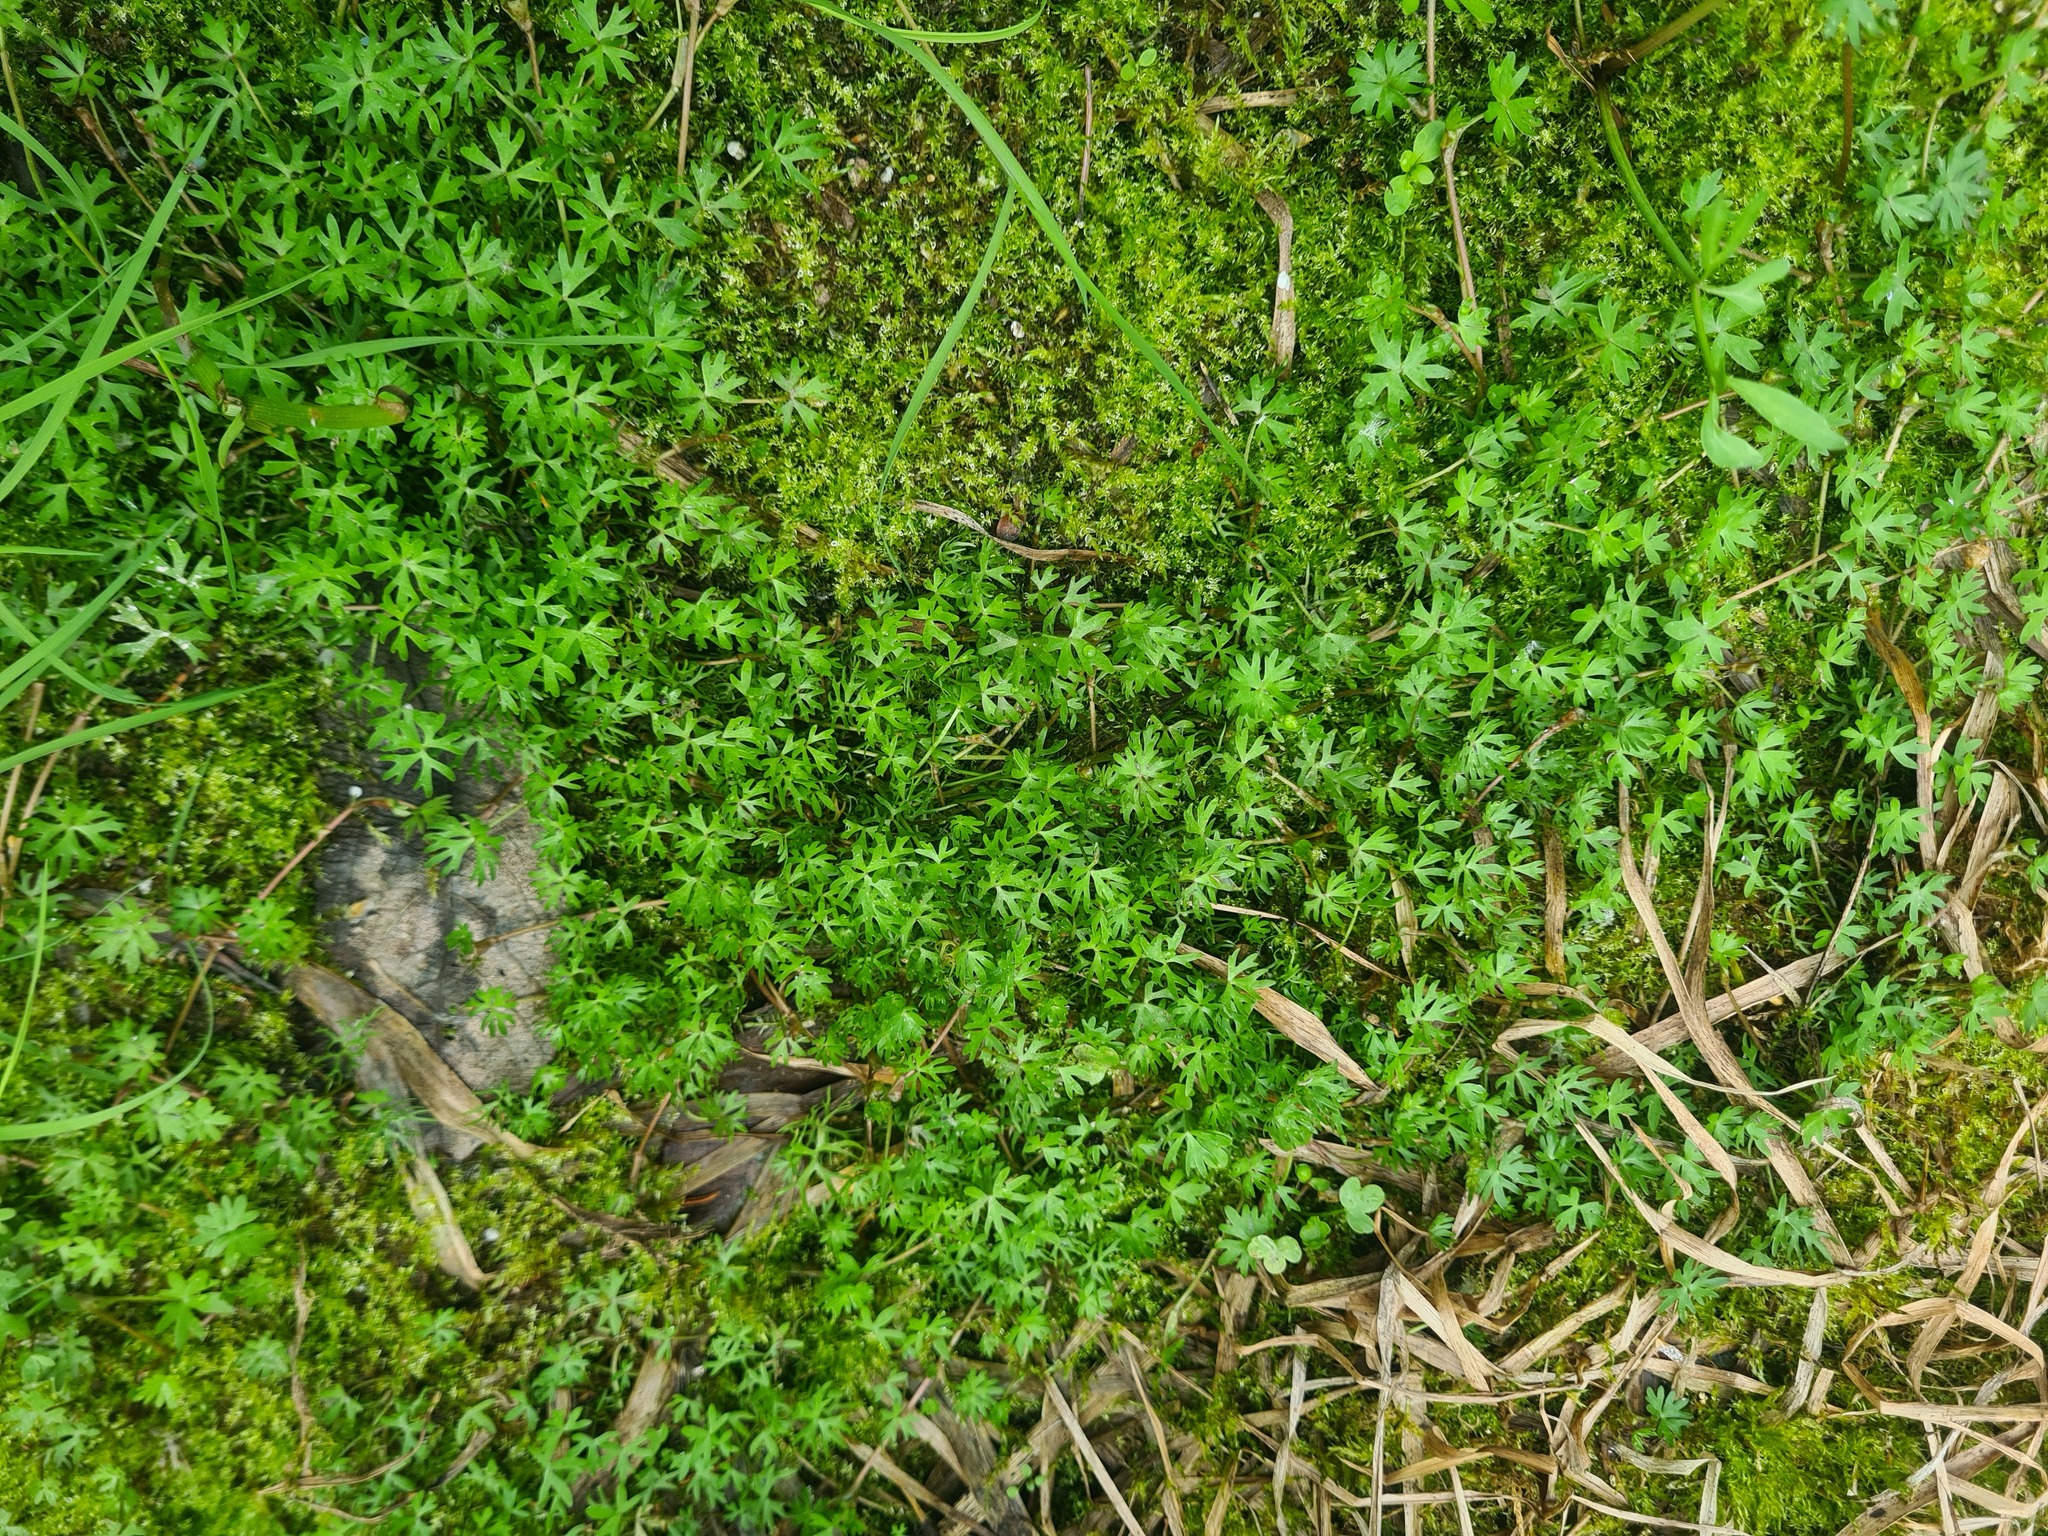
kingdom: Plantae
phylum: Tracheophyta
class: Magnoliopsida
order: Ranunculales
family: Ranunculaceae
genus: Ranunculus
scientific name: Ranunculus gmelinii
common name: Gmelin's buttercup
